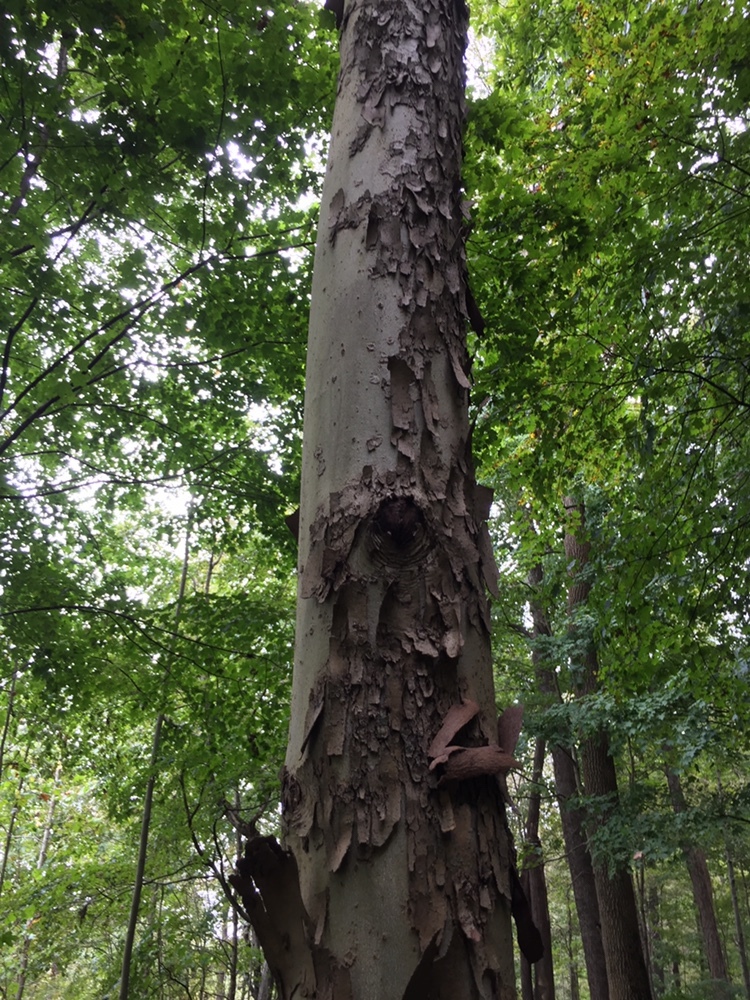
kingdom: Plantae
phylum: Tracheophyta
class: Magnoliopsida
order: Proteales
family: Platanaceae
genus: Platanus
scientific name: Platanus occidentalis
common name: American sycamore
